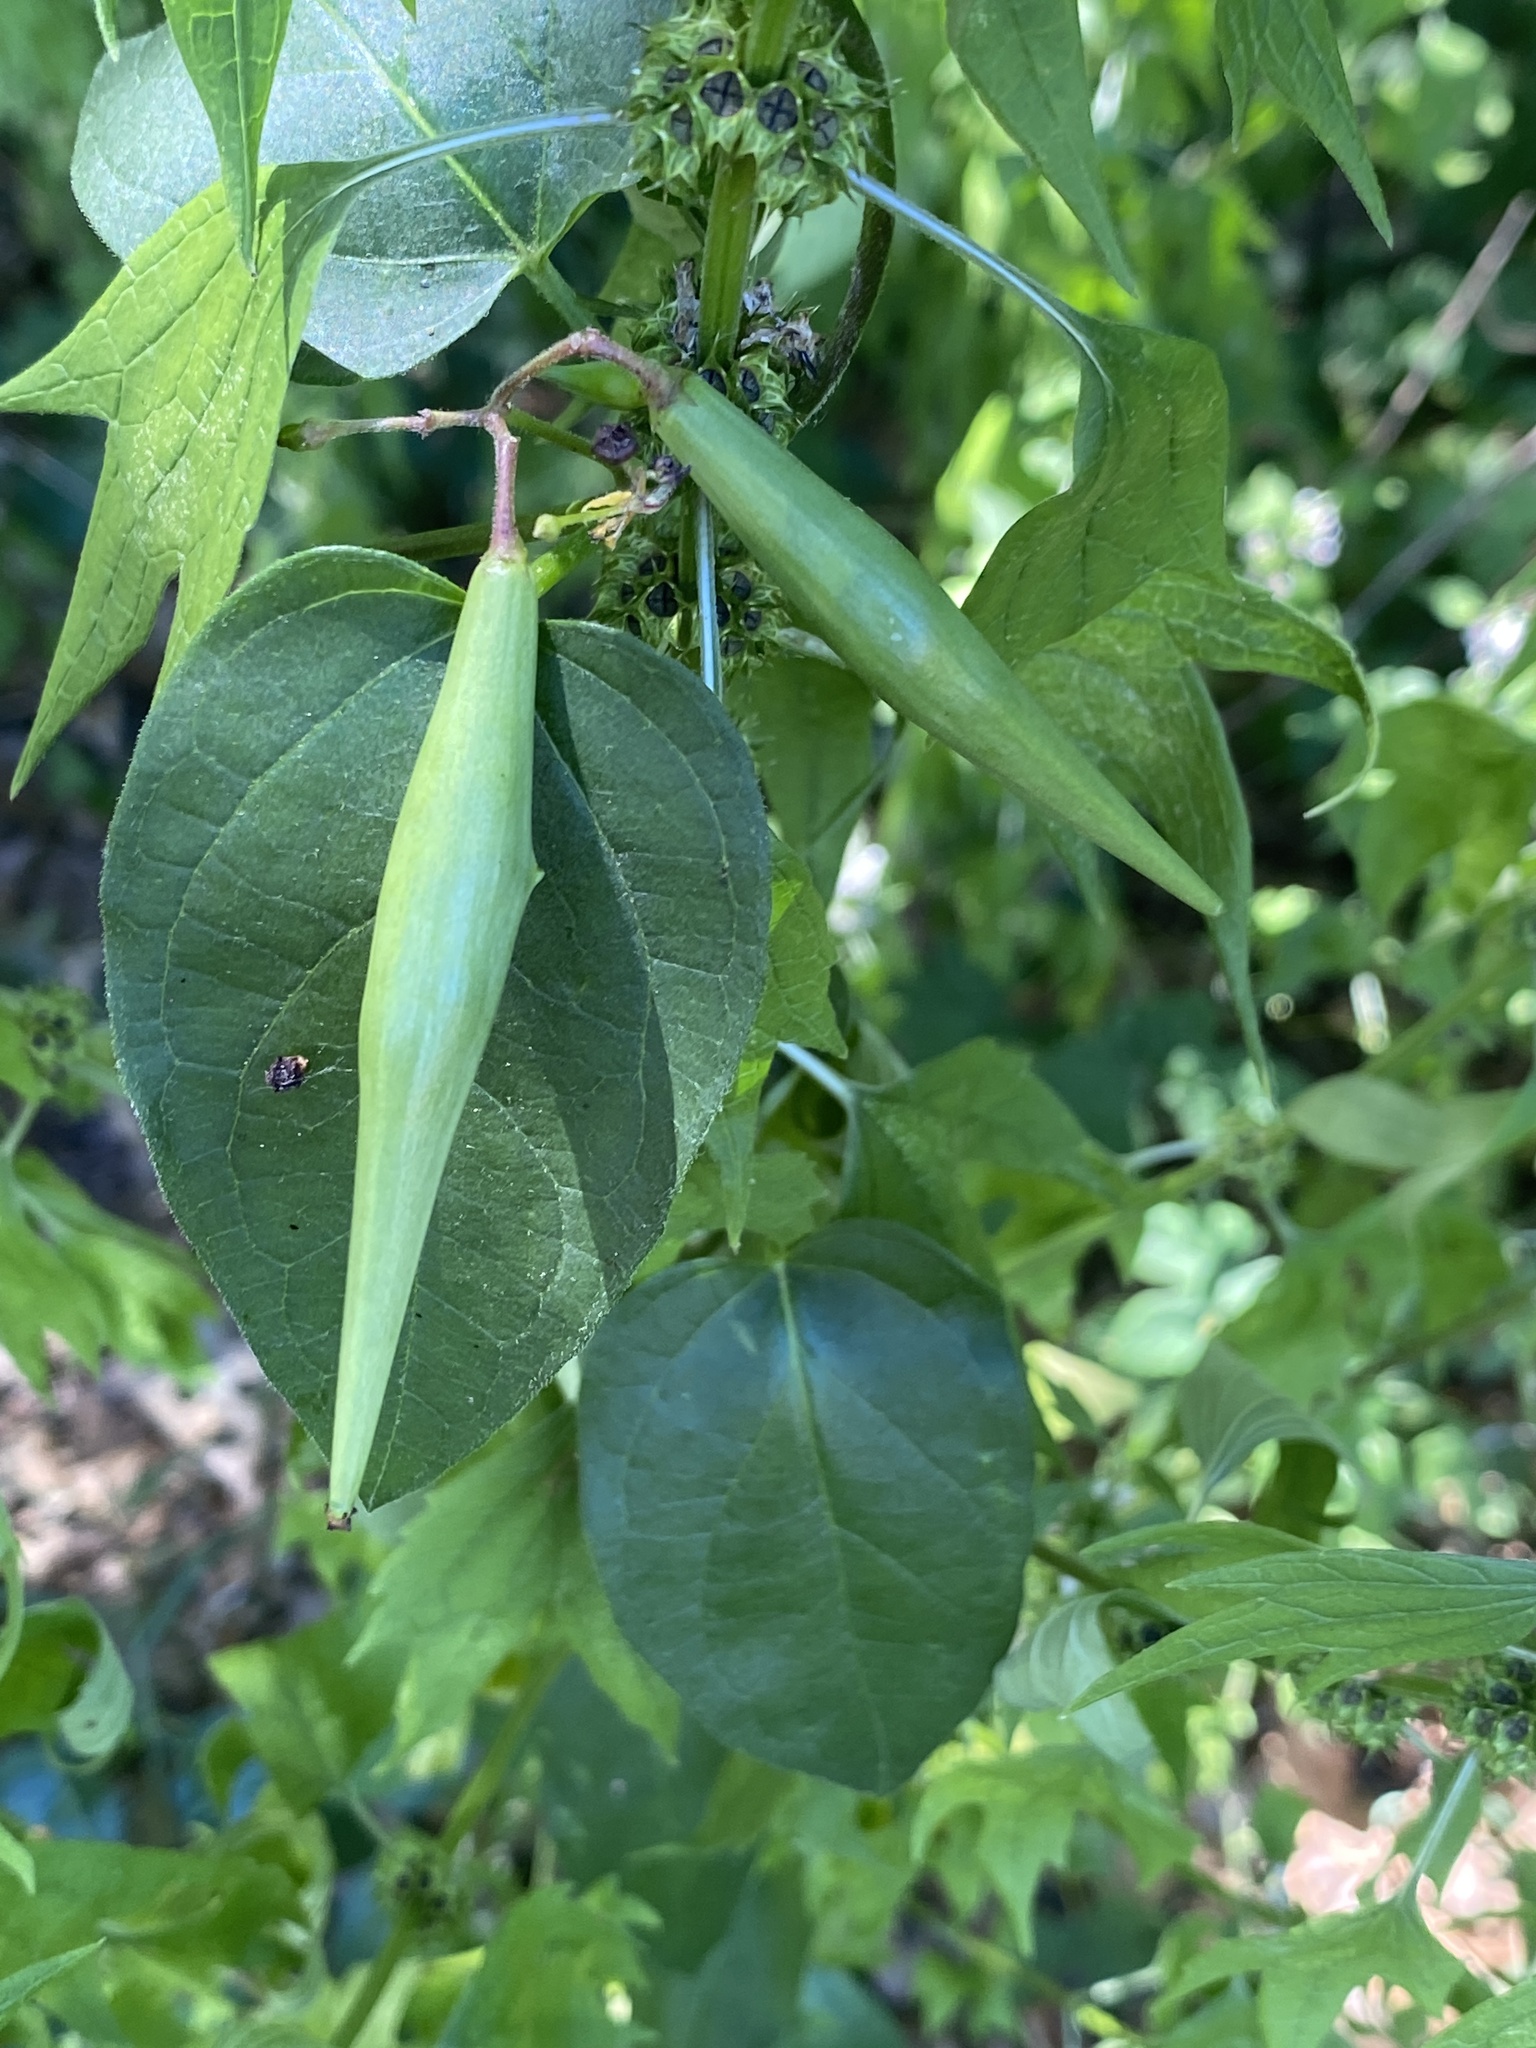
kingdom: Plantae
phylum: Tracheophyta
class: Magnoliopsida
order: Gentianales
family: Apocynaceae
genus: Vincetoxicum
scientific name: Vincetoxicum nigrum
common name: Black swallow-wort
